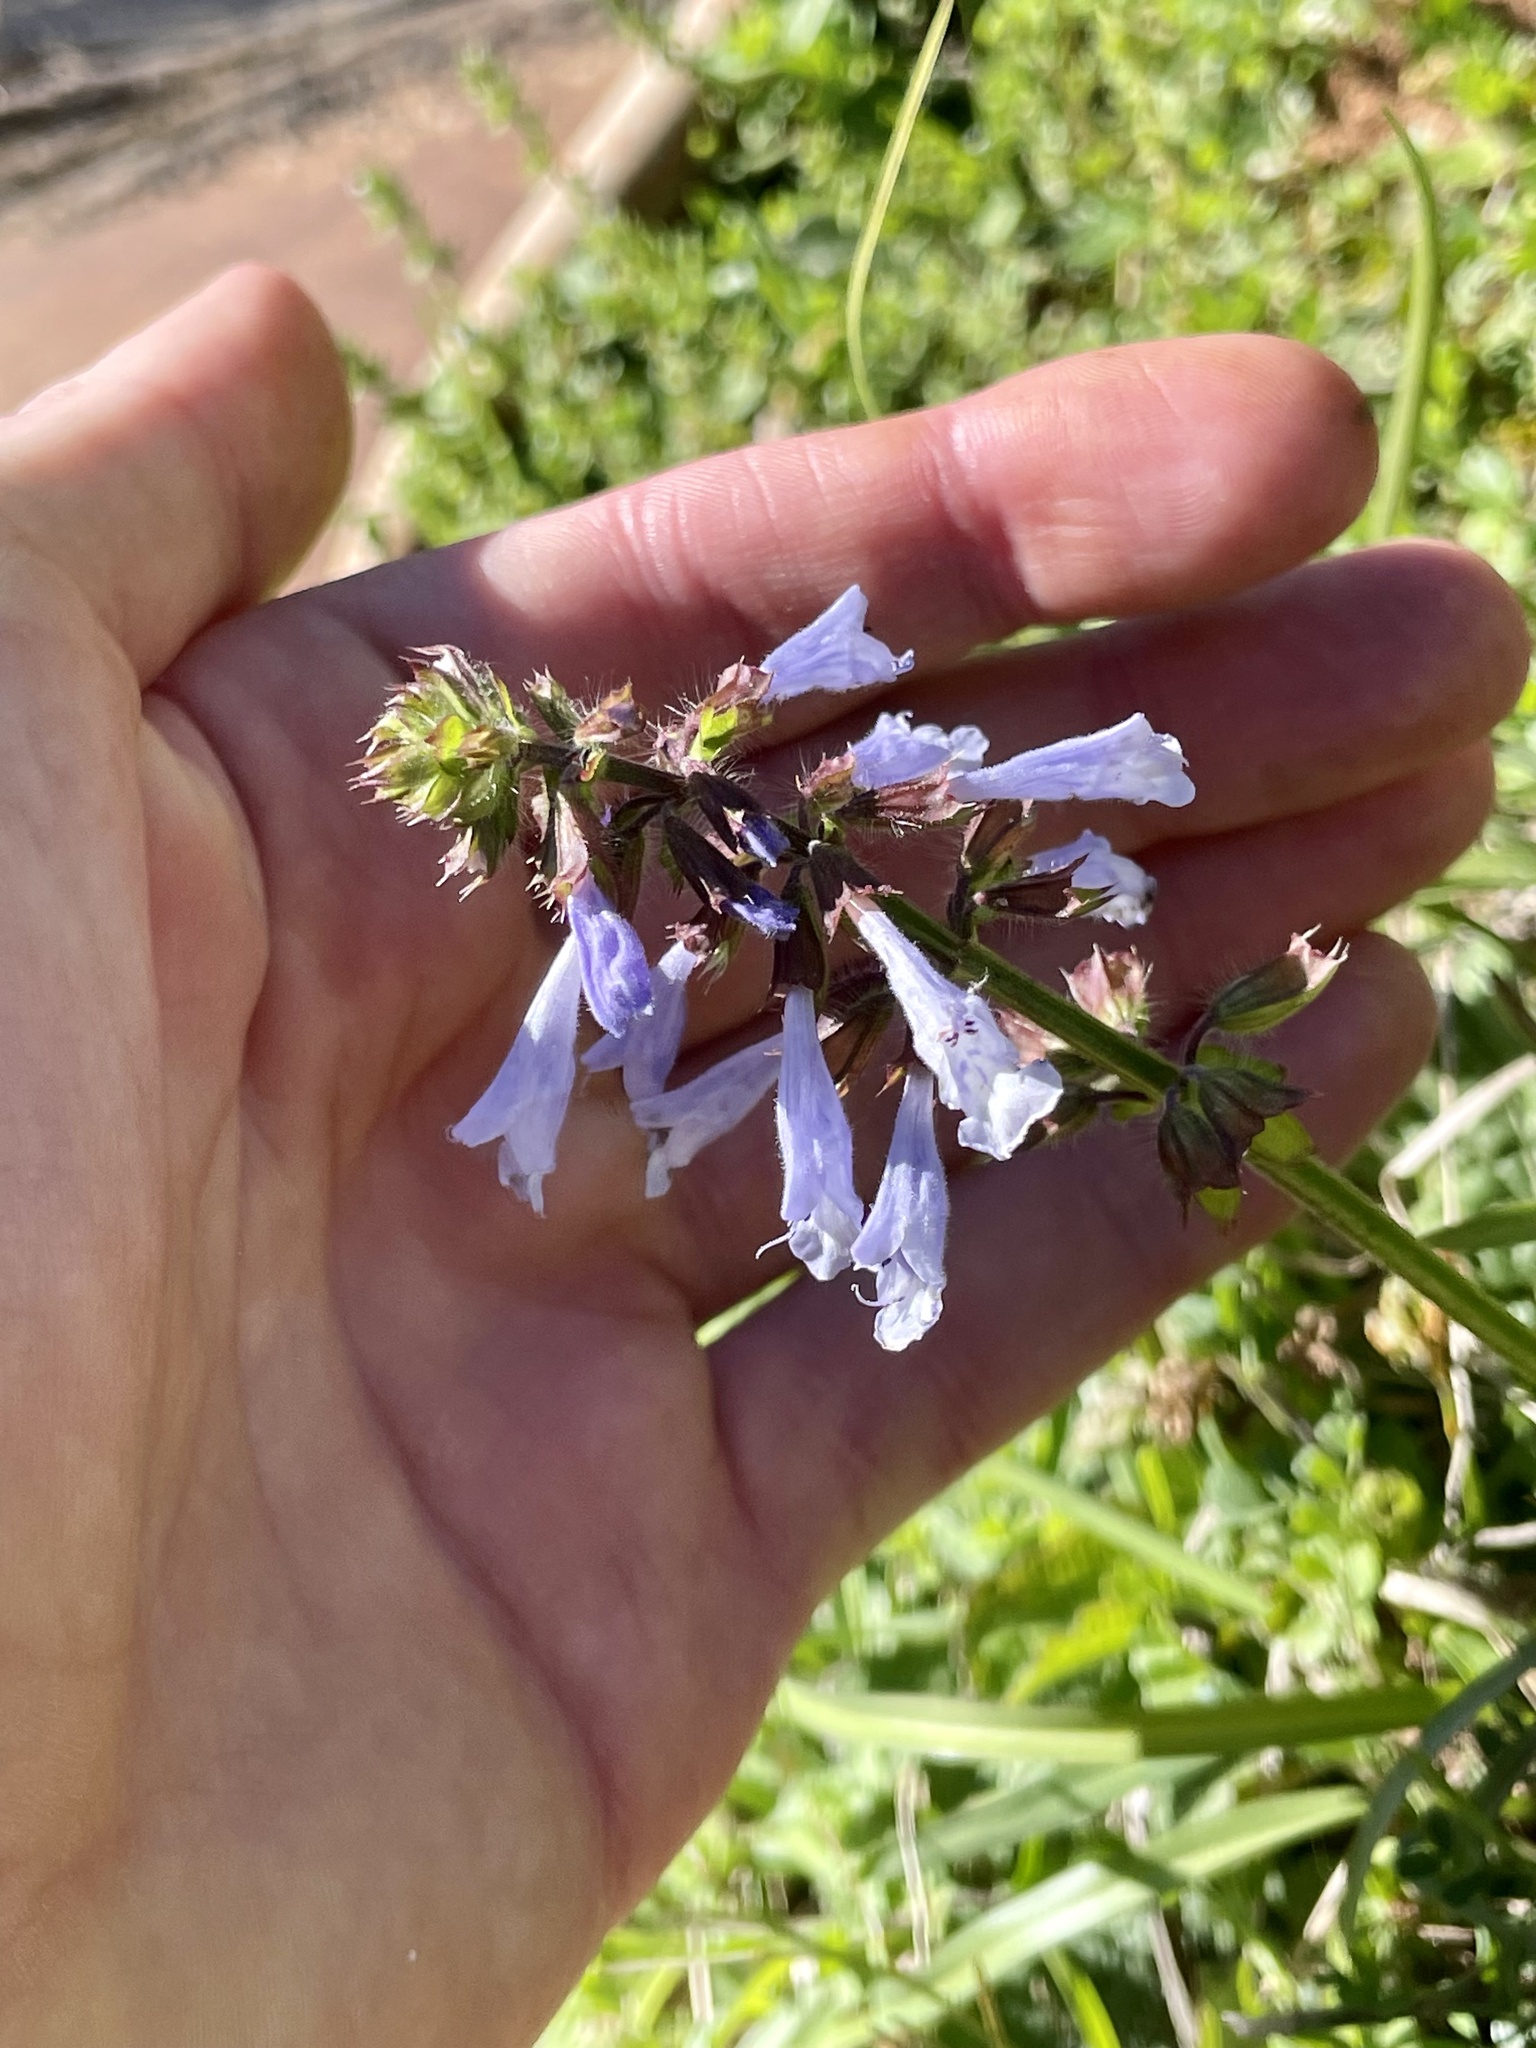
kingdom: Plantae
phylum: Tracheophyta
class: Magnoliopsida
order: Lamiales
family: Lamiaceae
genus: Salvia
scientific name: Salvia lyrata
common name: Cancerweed
